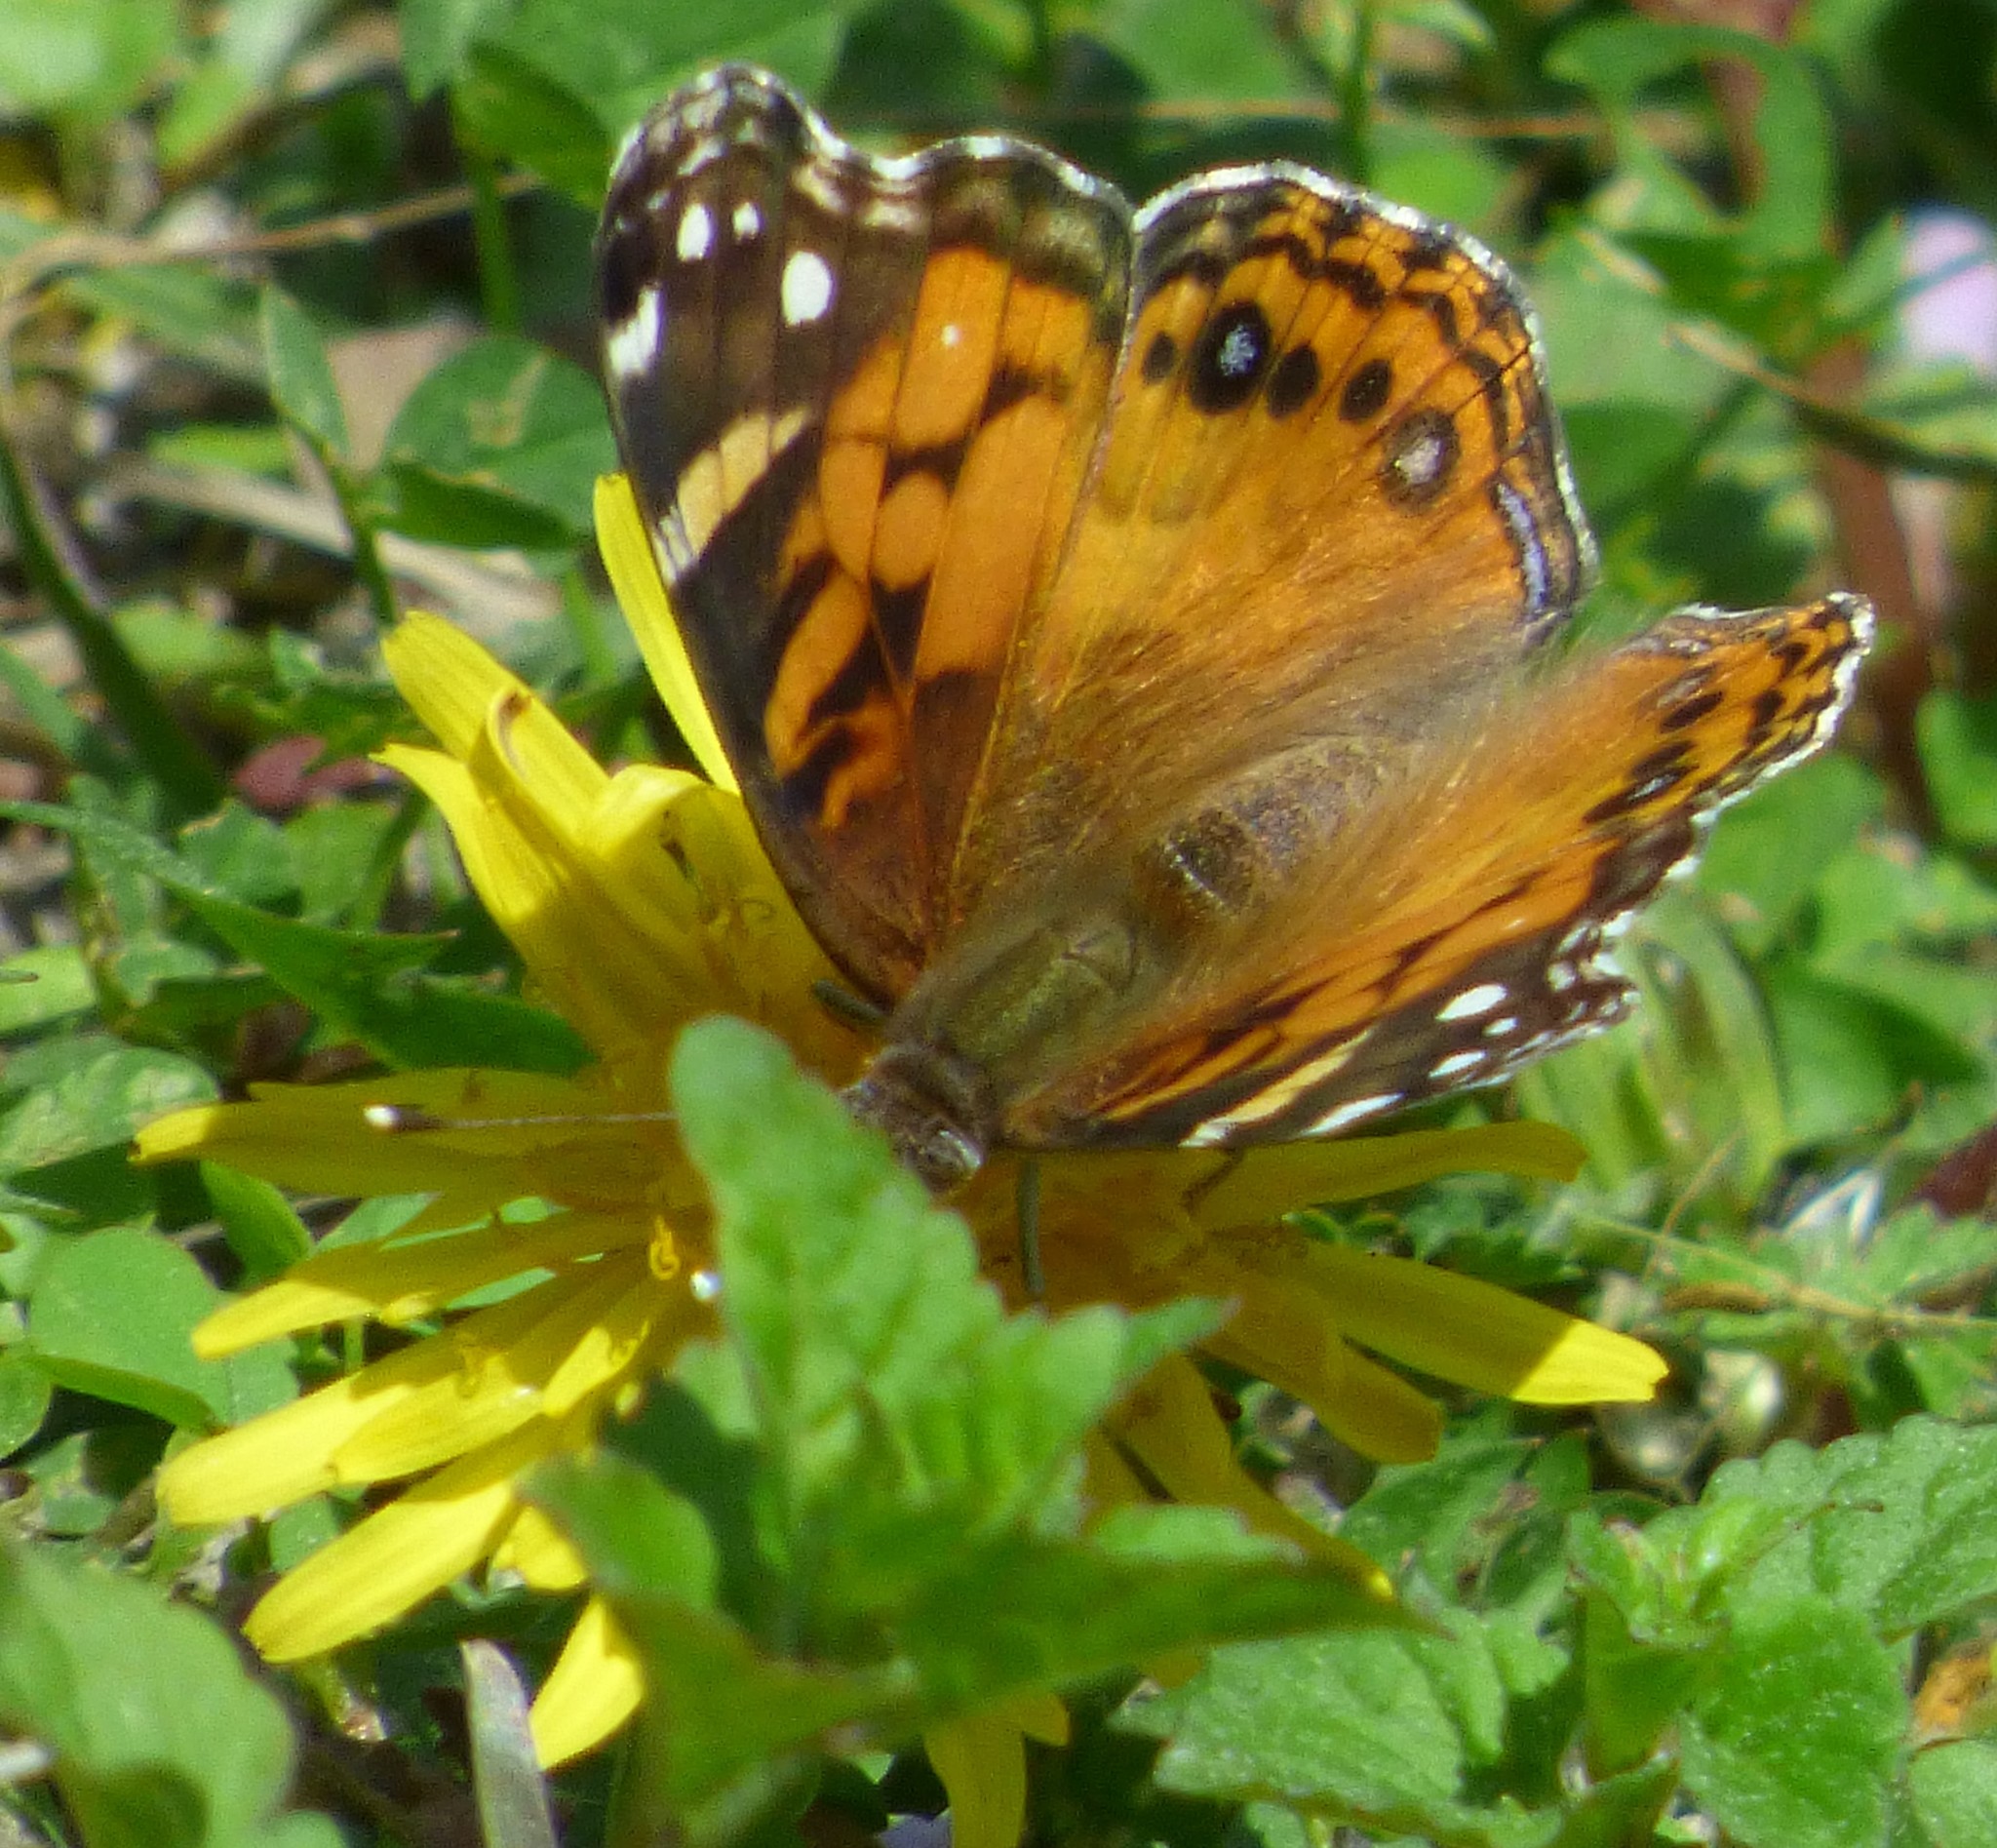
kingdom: Animalia
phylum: Arthropoda
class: Insecta
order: Lepidoptera
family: Nymphalidae
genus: Vanessa
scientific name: Vanessa virginiensis
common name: American lady
